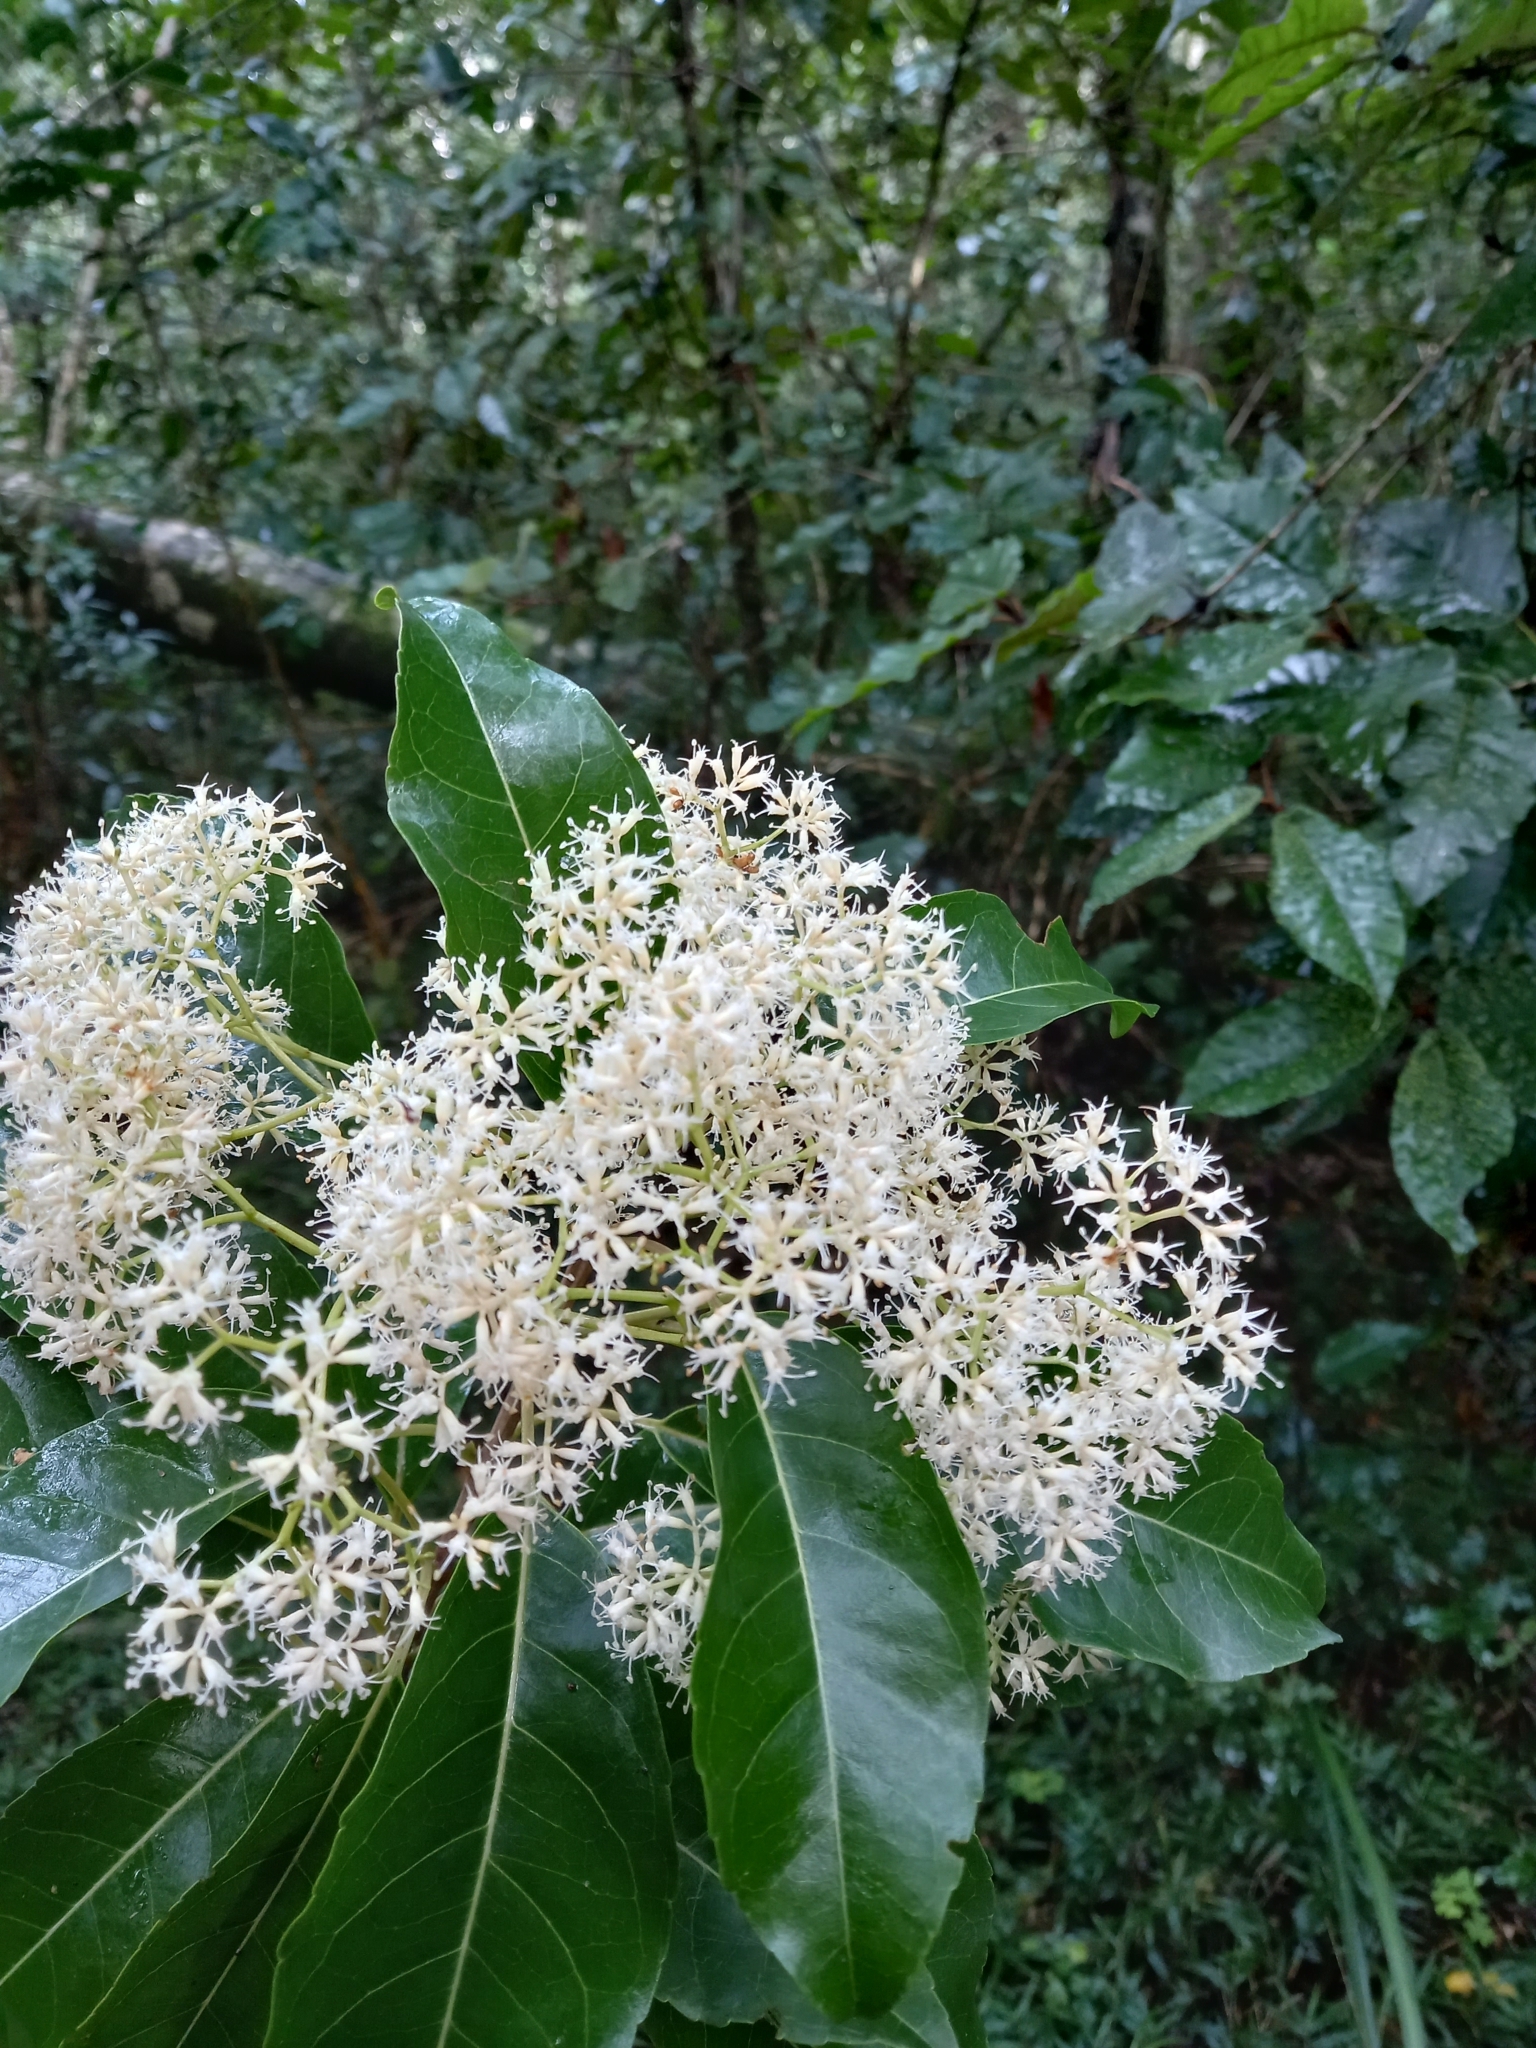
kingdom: Plantae
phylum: Tracheophyta
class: Magnoliopsida
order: Lamiales
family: Stilbaceae
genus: Nuxia
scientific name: Nuxia floribunda
